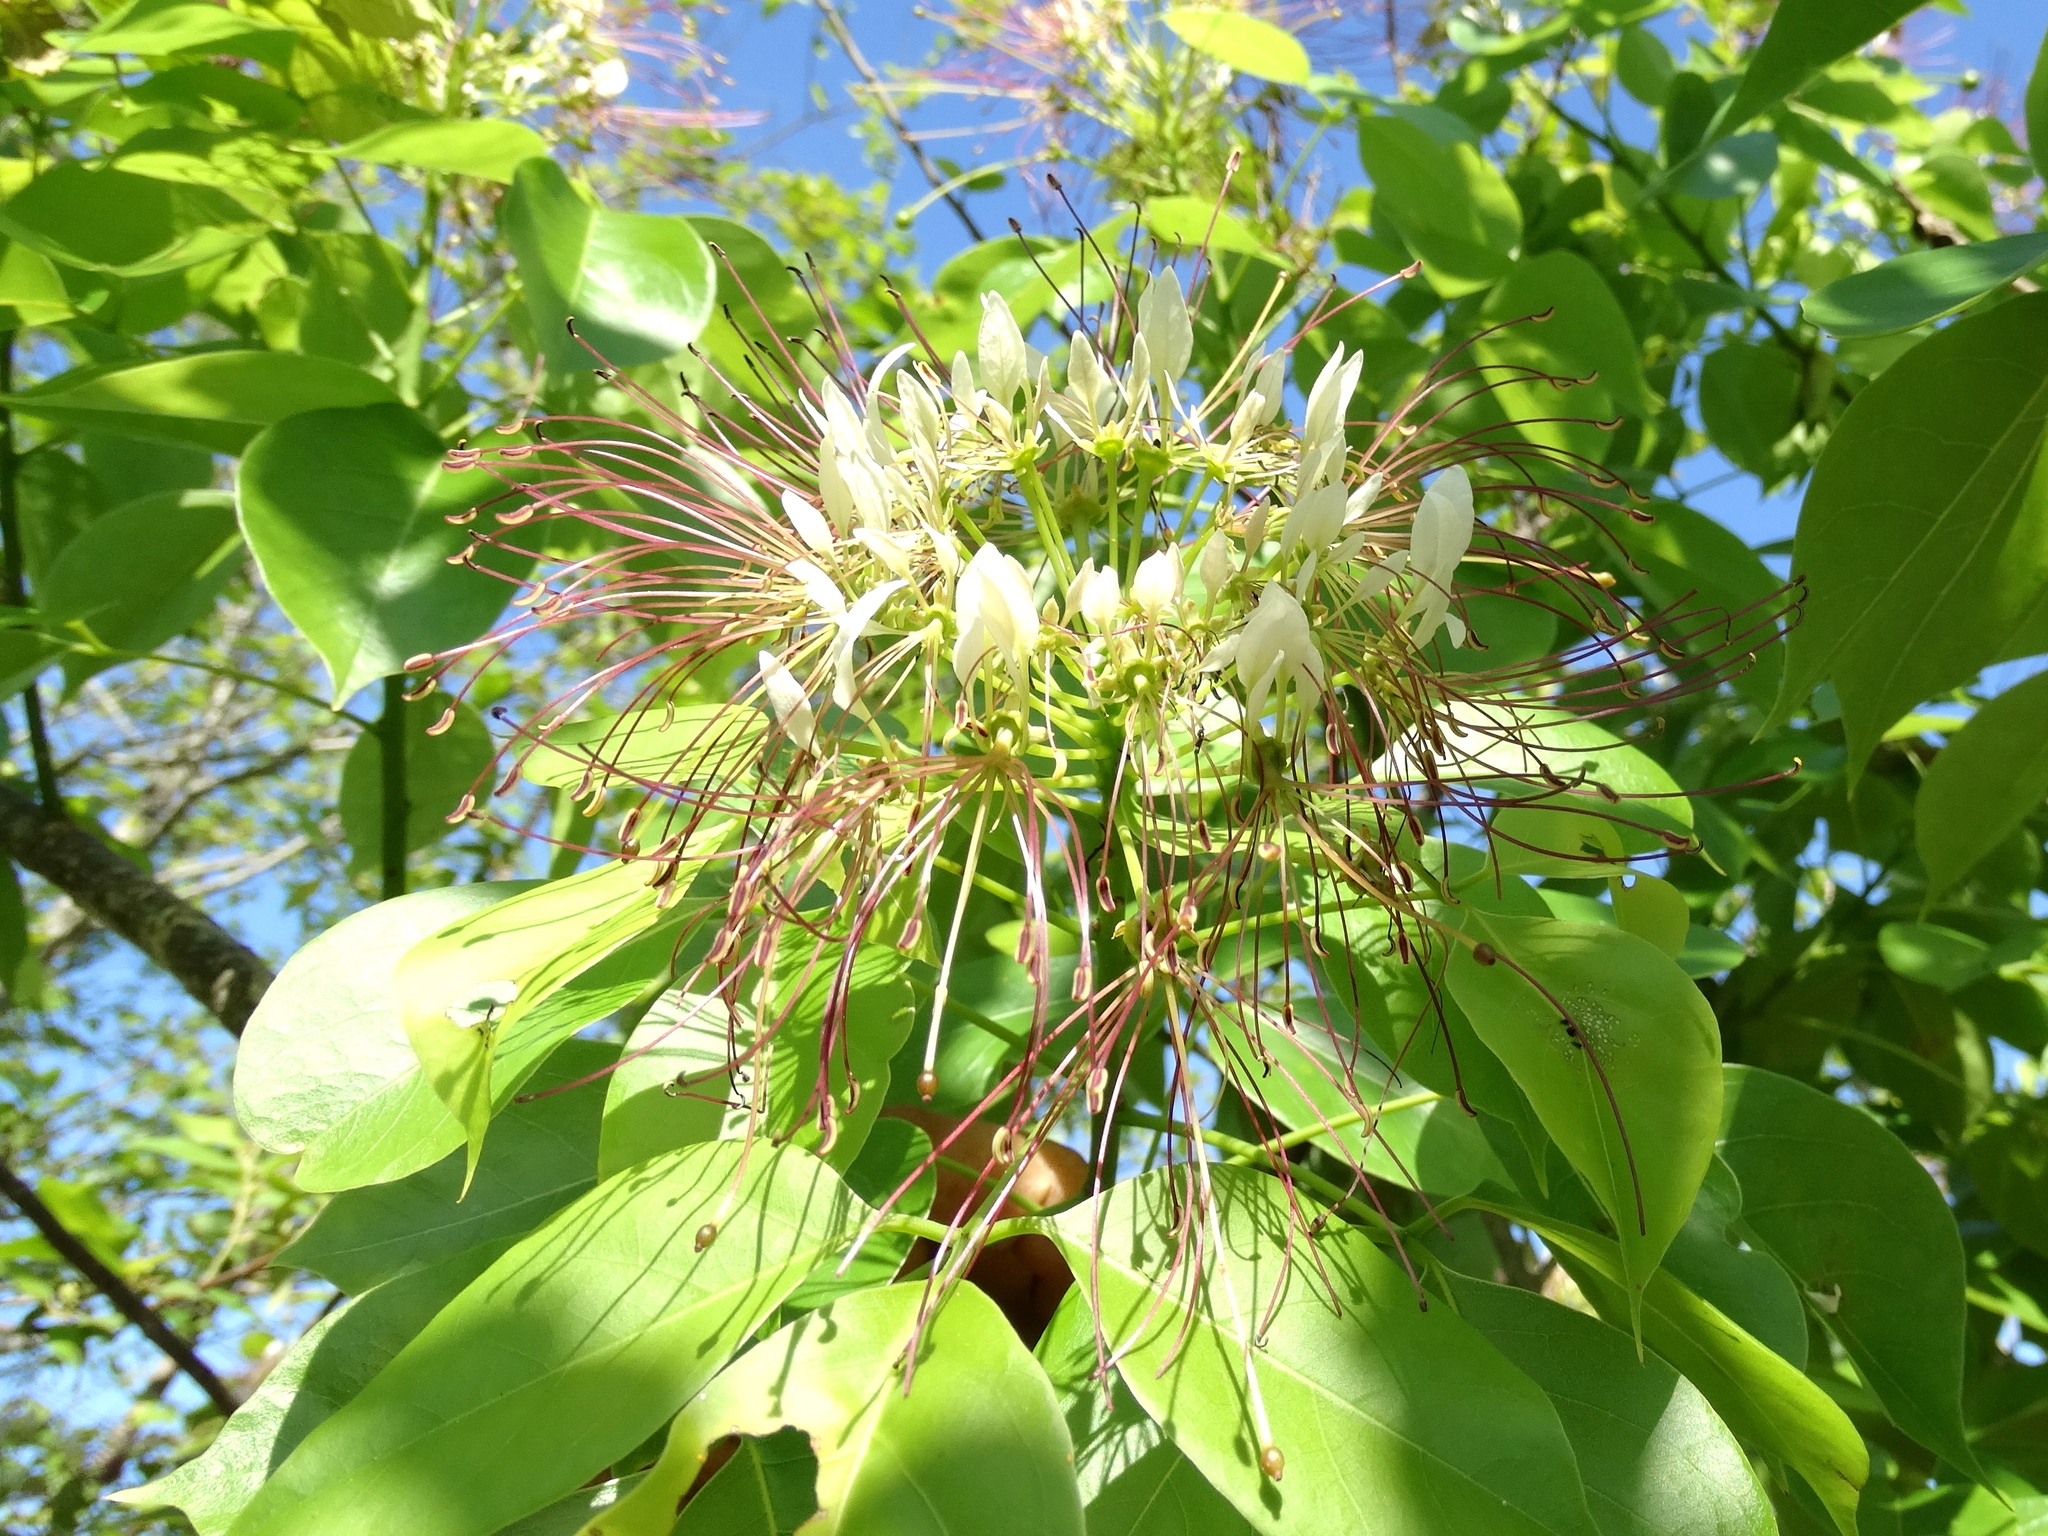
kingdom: Plantae
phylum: Tracheophyta
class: Magnoliopsida
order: Brassicales
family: Capparaceae
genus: Crateva
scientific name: Crateva tapia
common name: Garlic-pear
